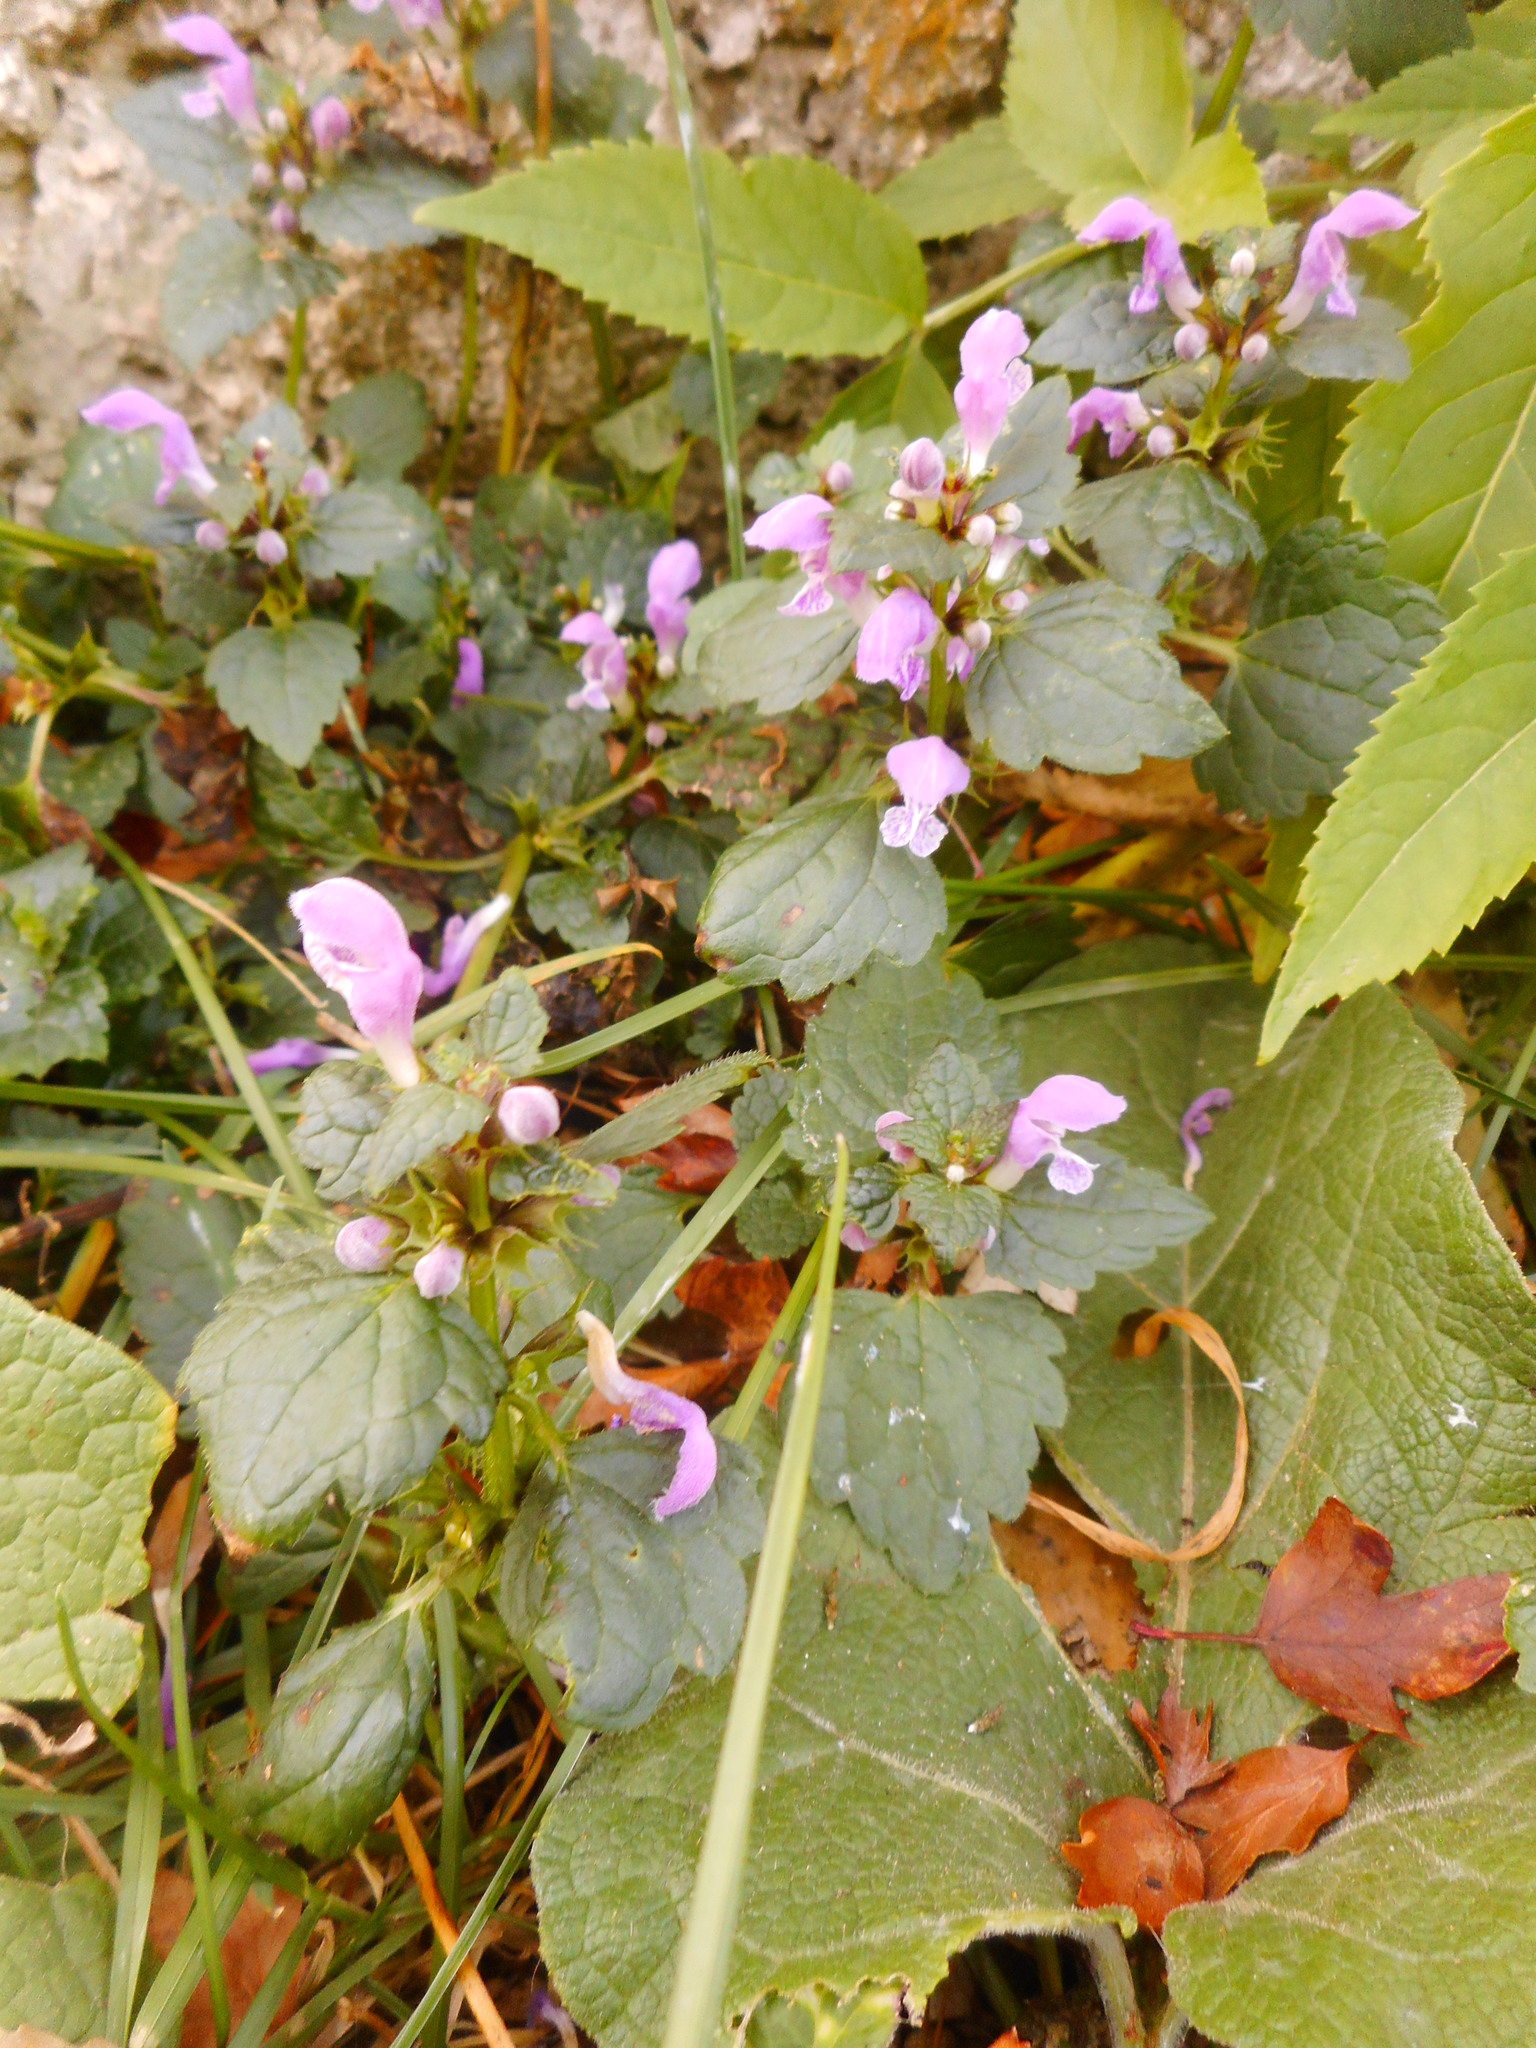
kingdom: Plantae
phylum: Tracheophyta
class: Magnoliopsida
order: Lamiales
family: Lamiaceae
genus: Lamium
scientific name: Lamium maculatum
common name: Spotted dead-nettle
